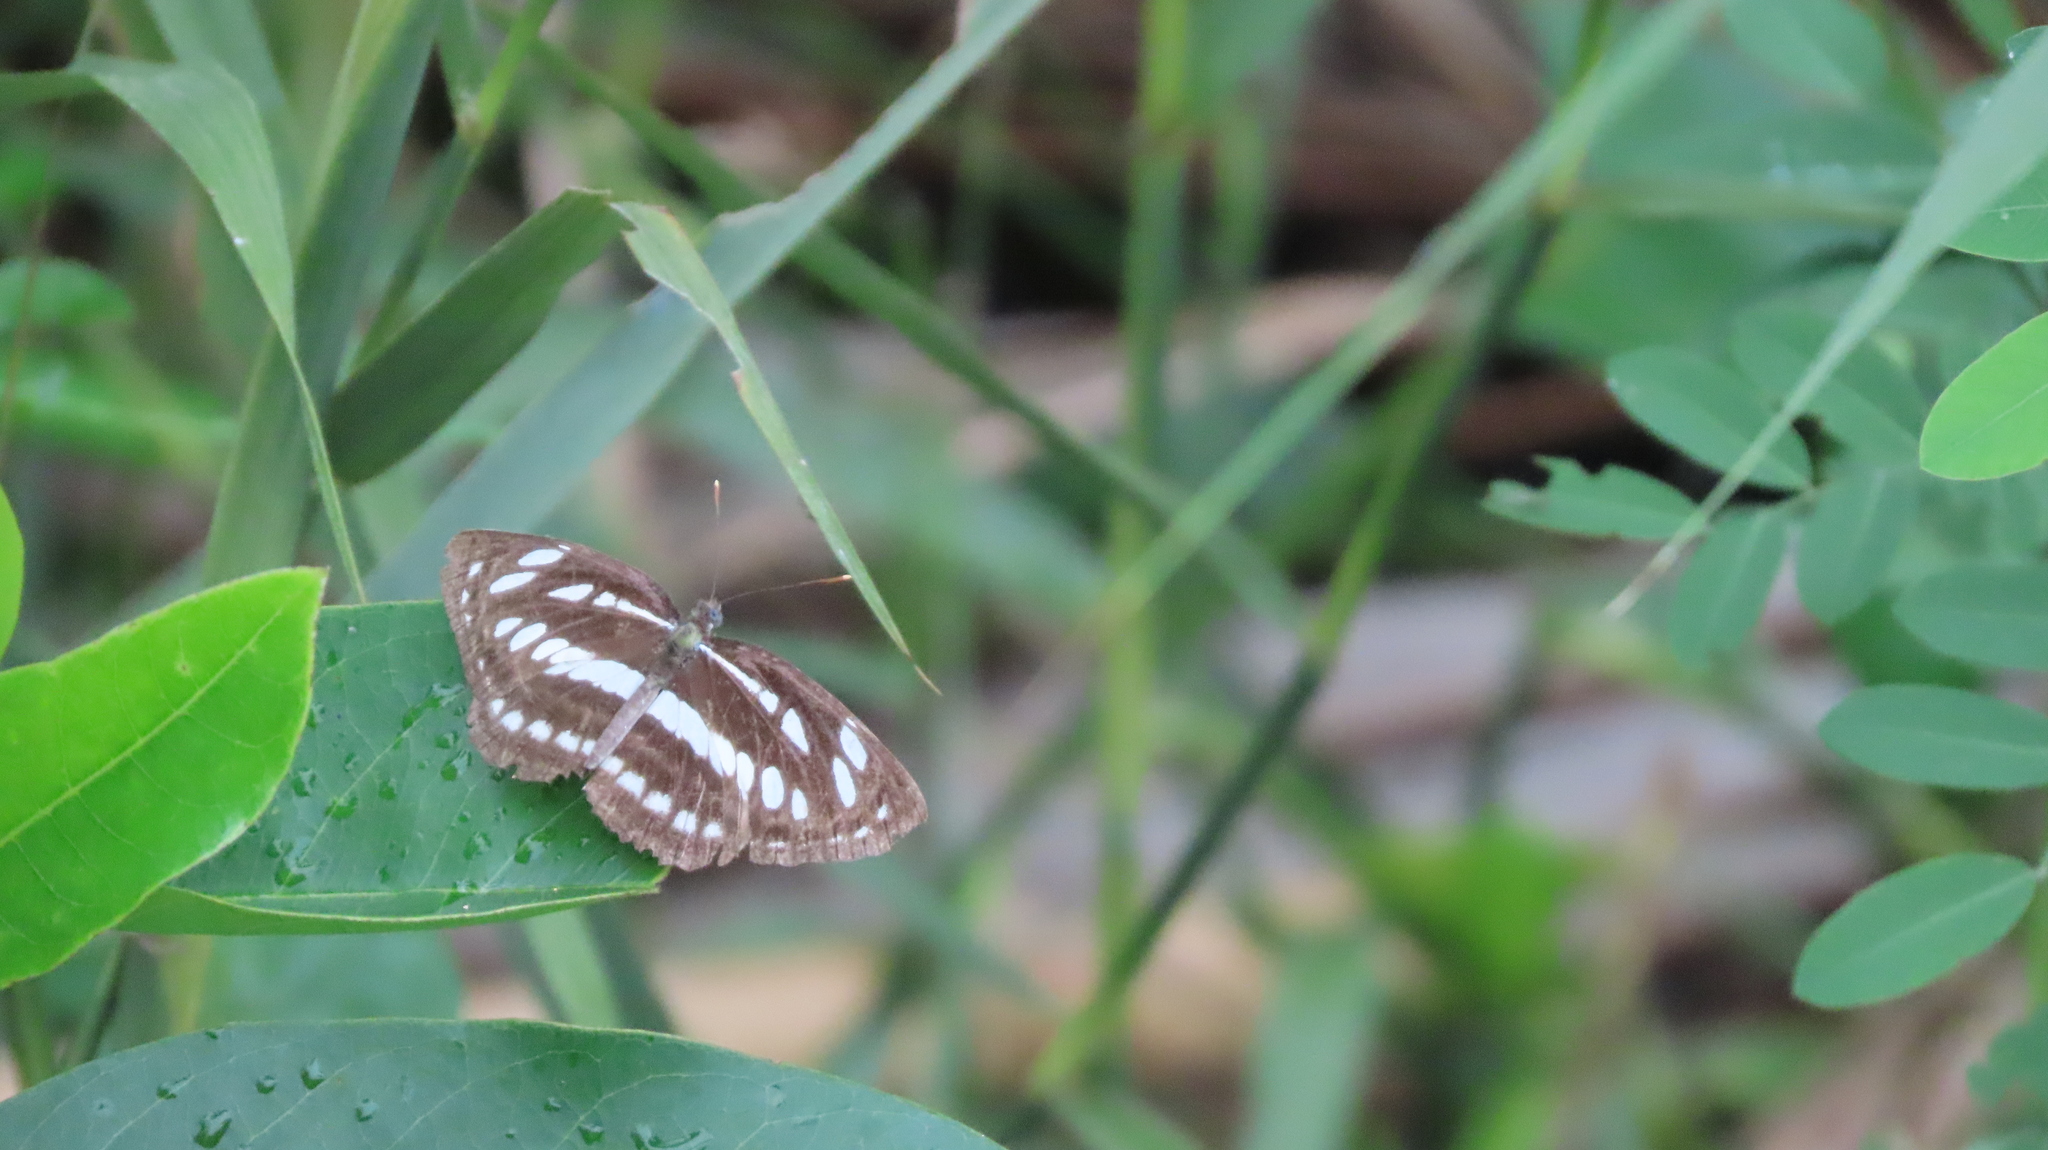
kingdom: Animalia
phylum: Arthropoda
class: Insecta
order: Lepidoptera
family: Nymphalidae
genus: Neptis
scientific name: Neptis hylas
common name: Common sailer
